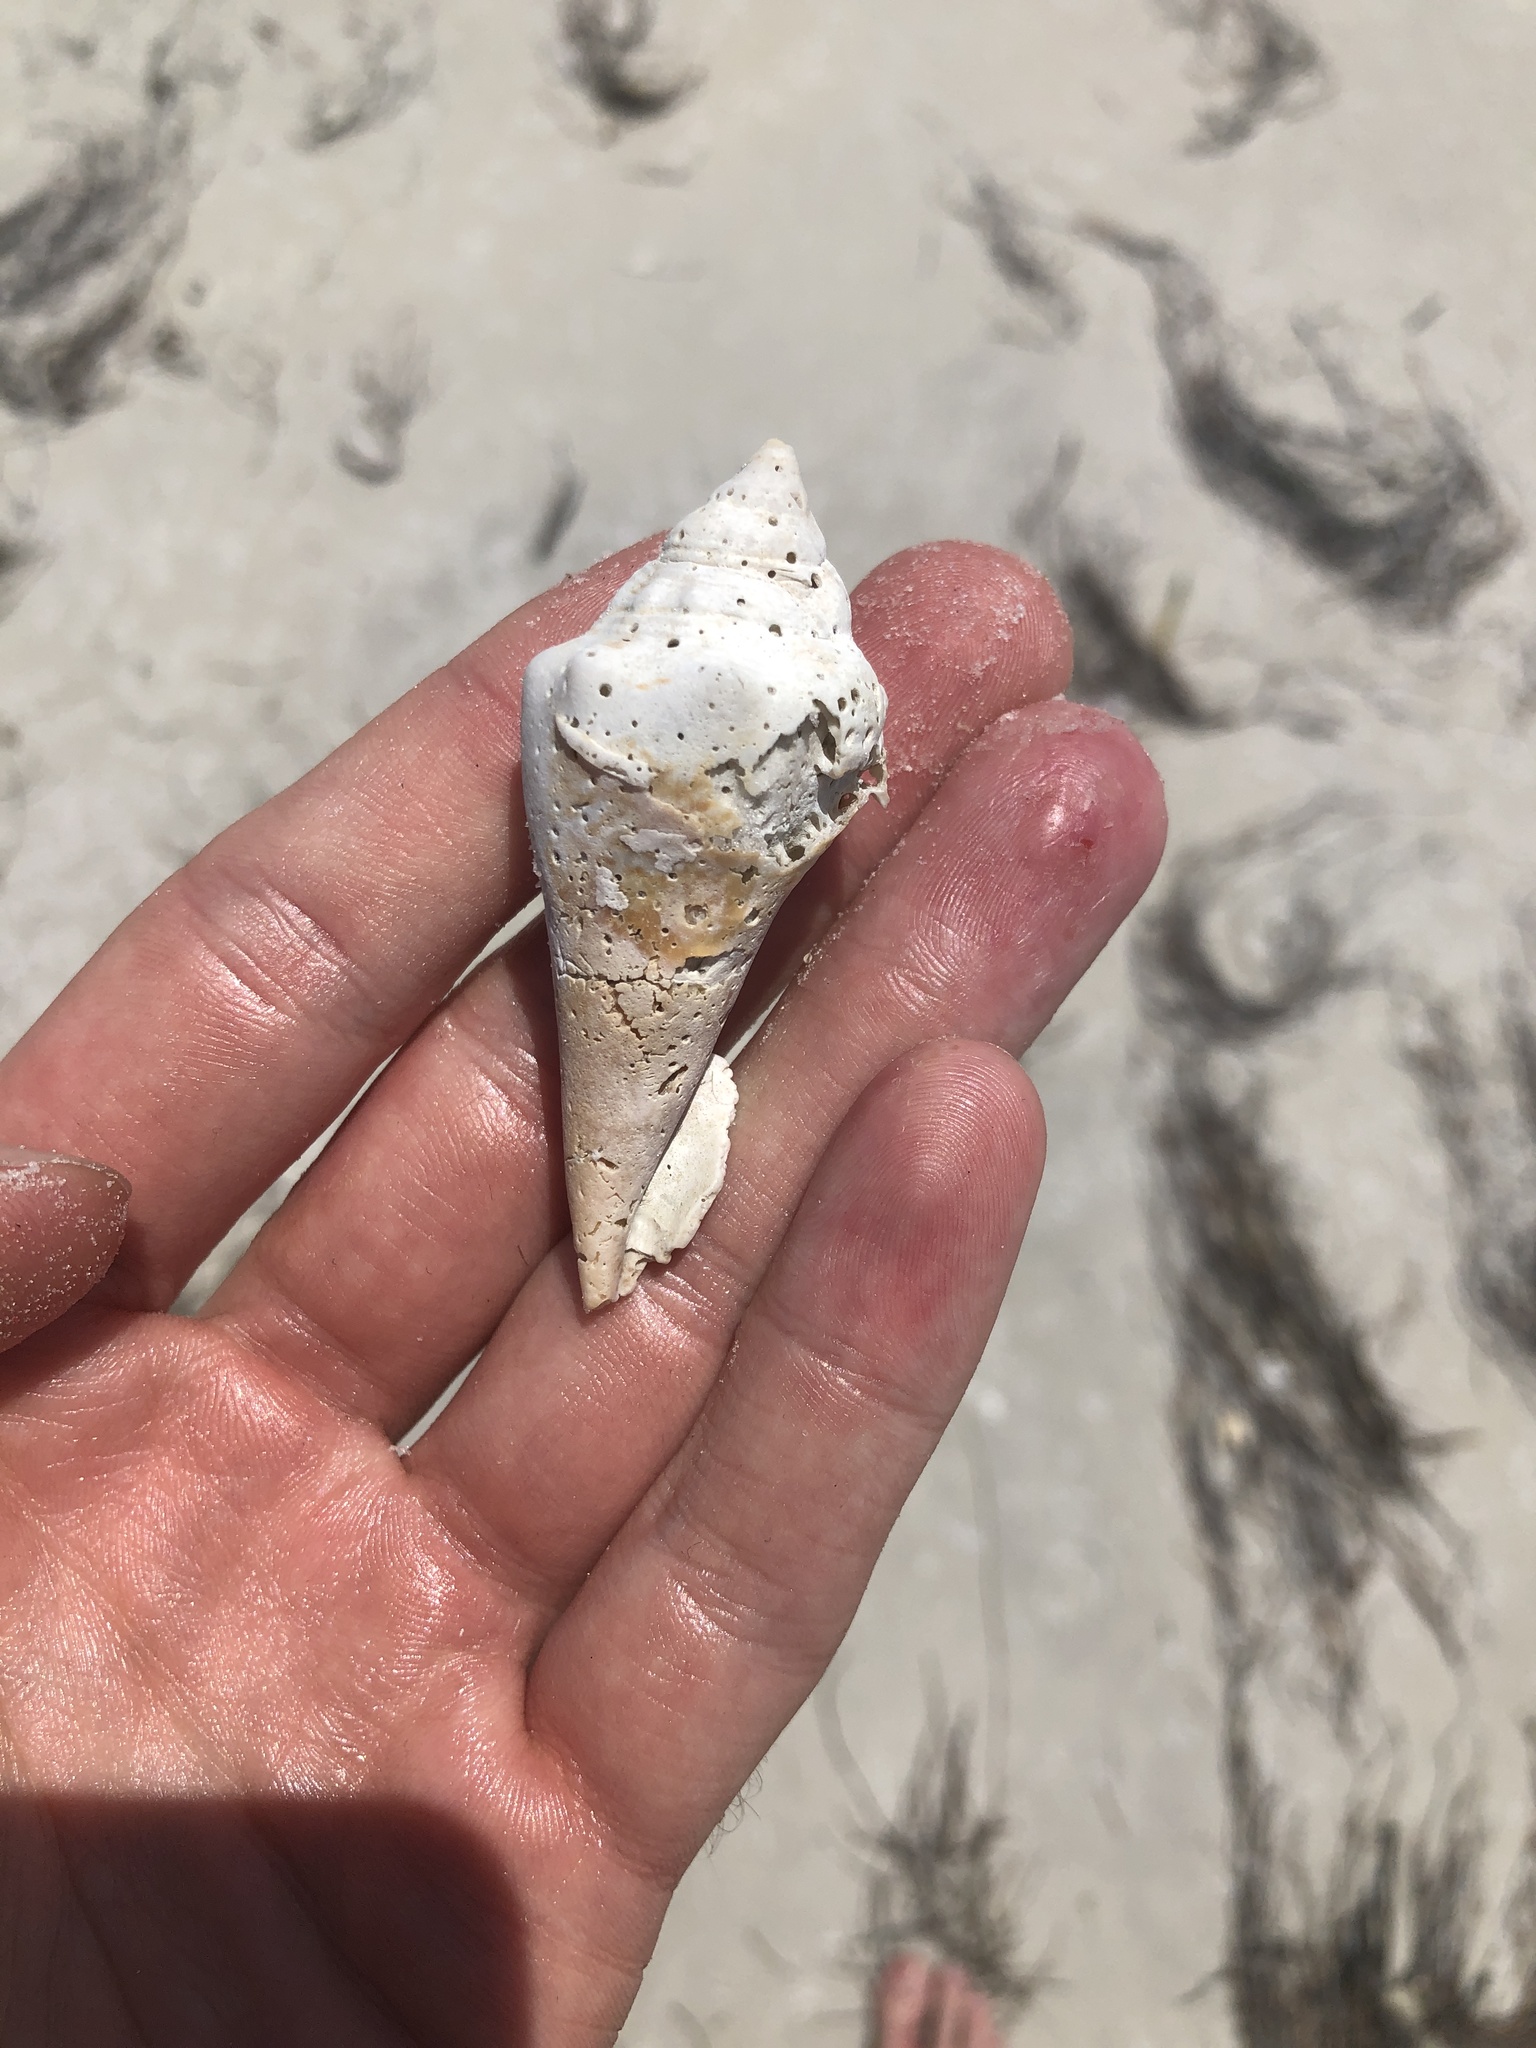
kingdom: Animalia
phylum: Mollusca
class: Gastropoda
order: Littorinimorpha
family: Strombidae
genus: Strombus
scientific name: Strombus alatus
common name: Florida fighting conch
